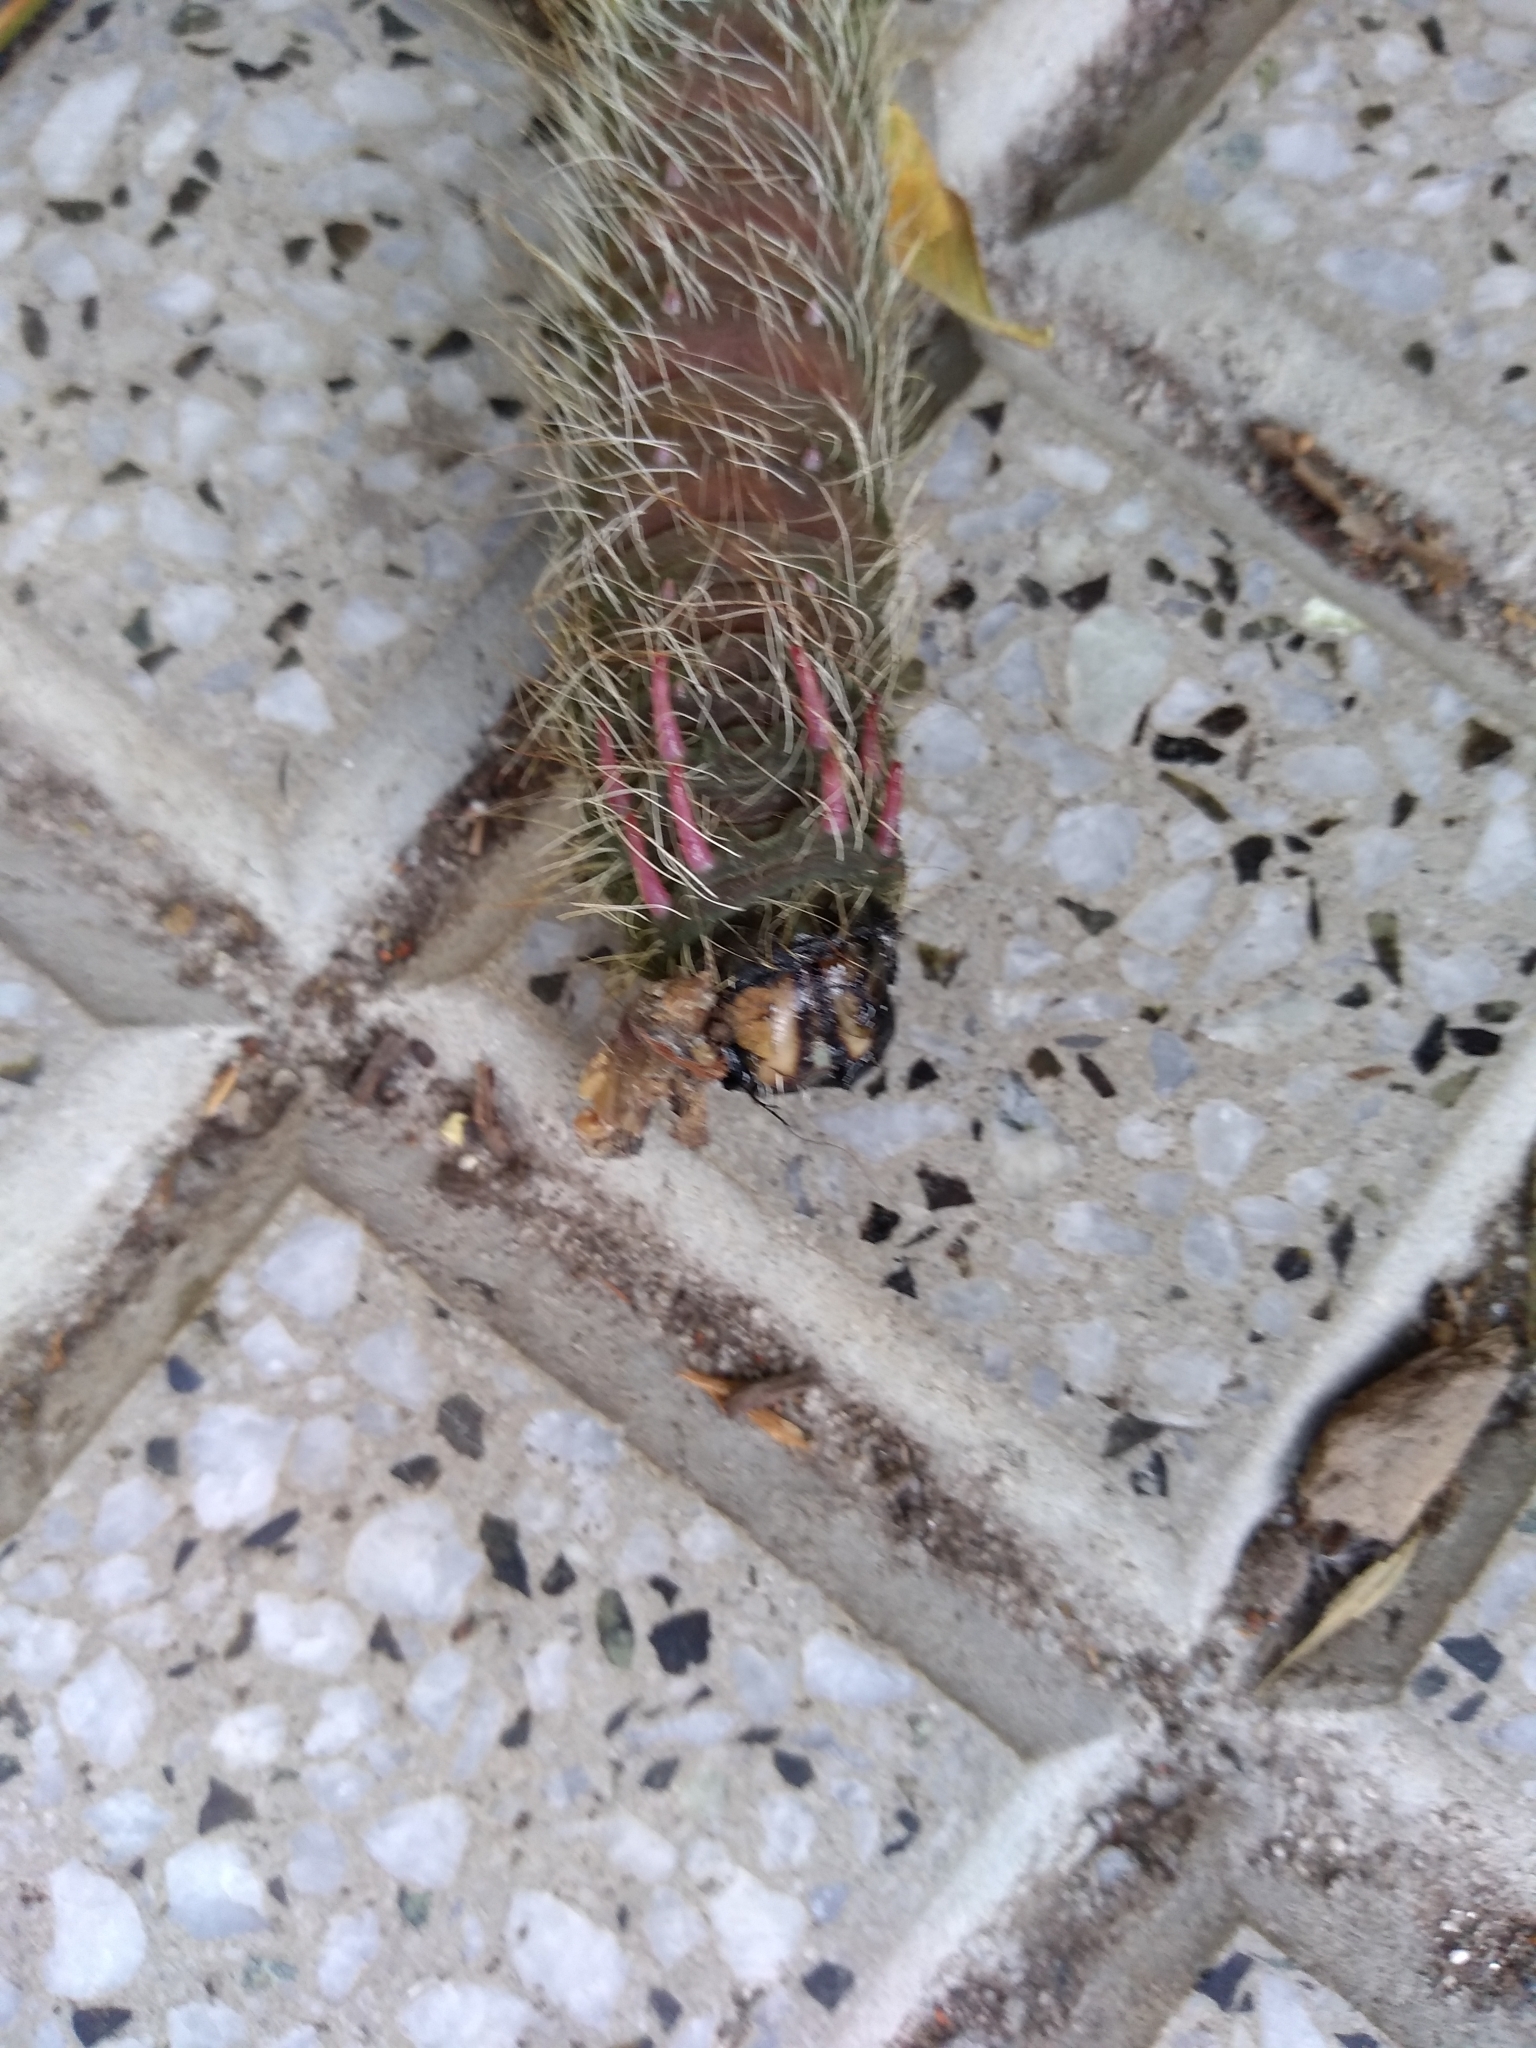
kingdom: Animalia
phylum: Arthropoda
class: Insecta
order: Lepidoptera
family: Saturniidae
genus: Eacles
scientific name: Eacles imperialis
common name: Imperial moth
